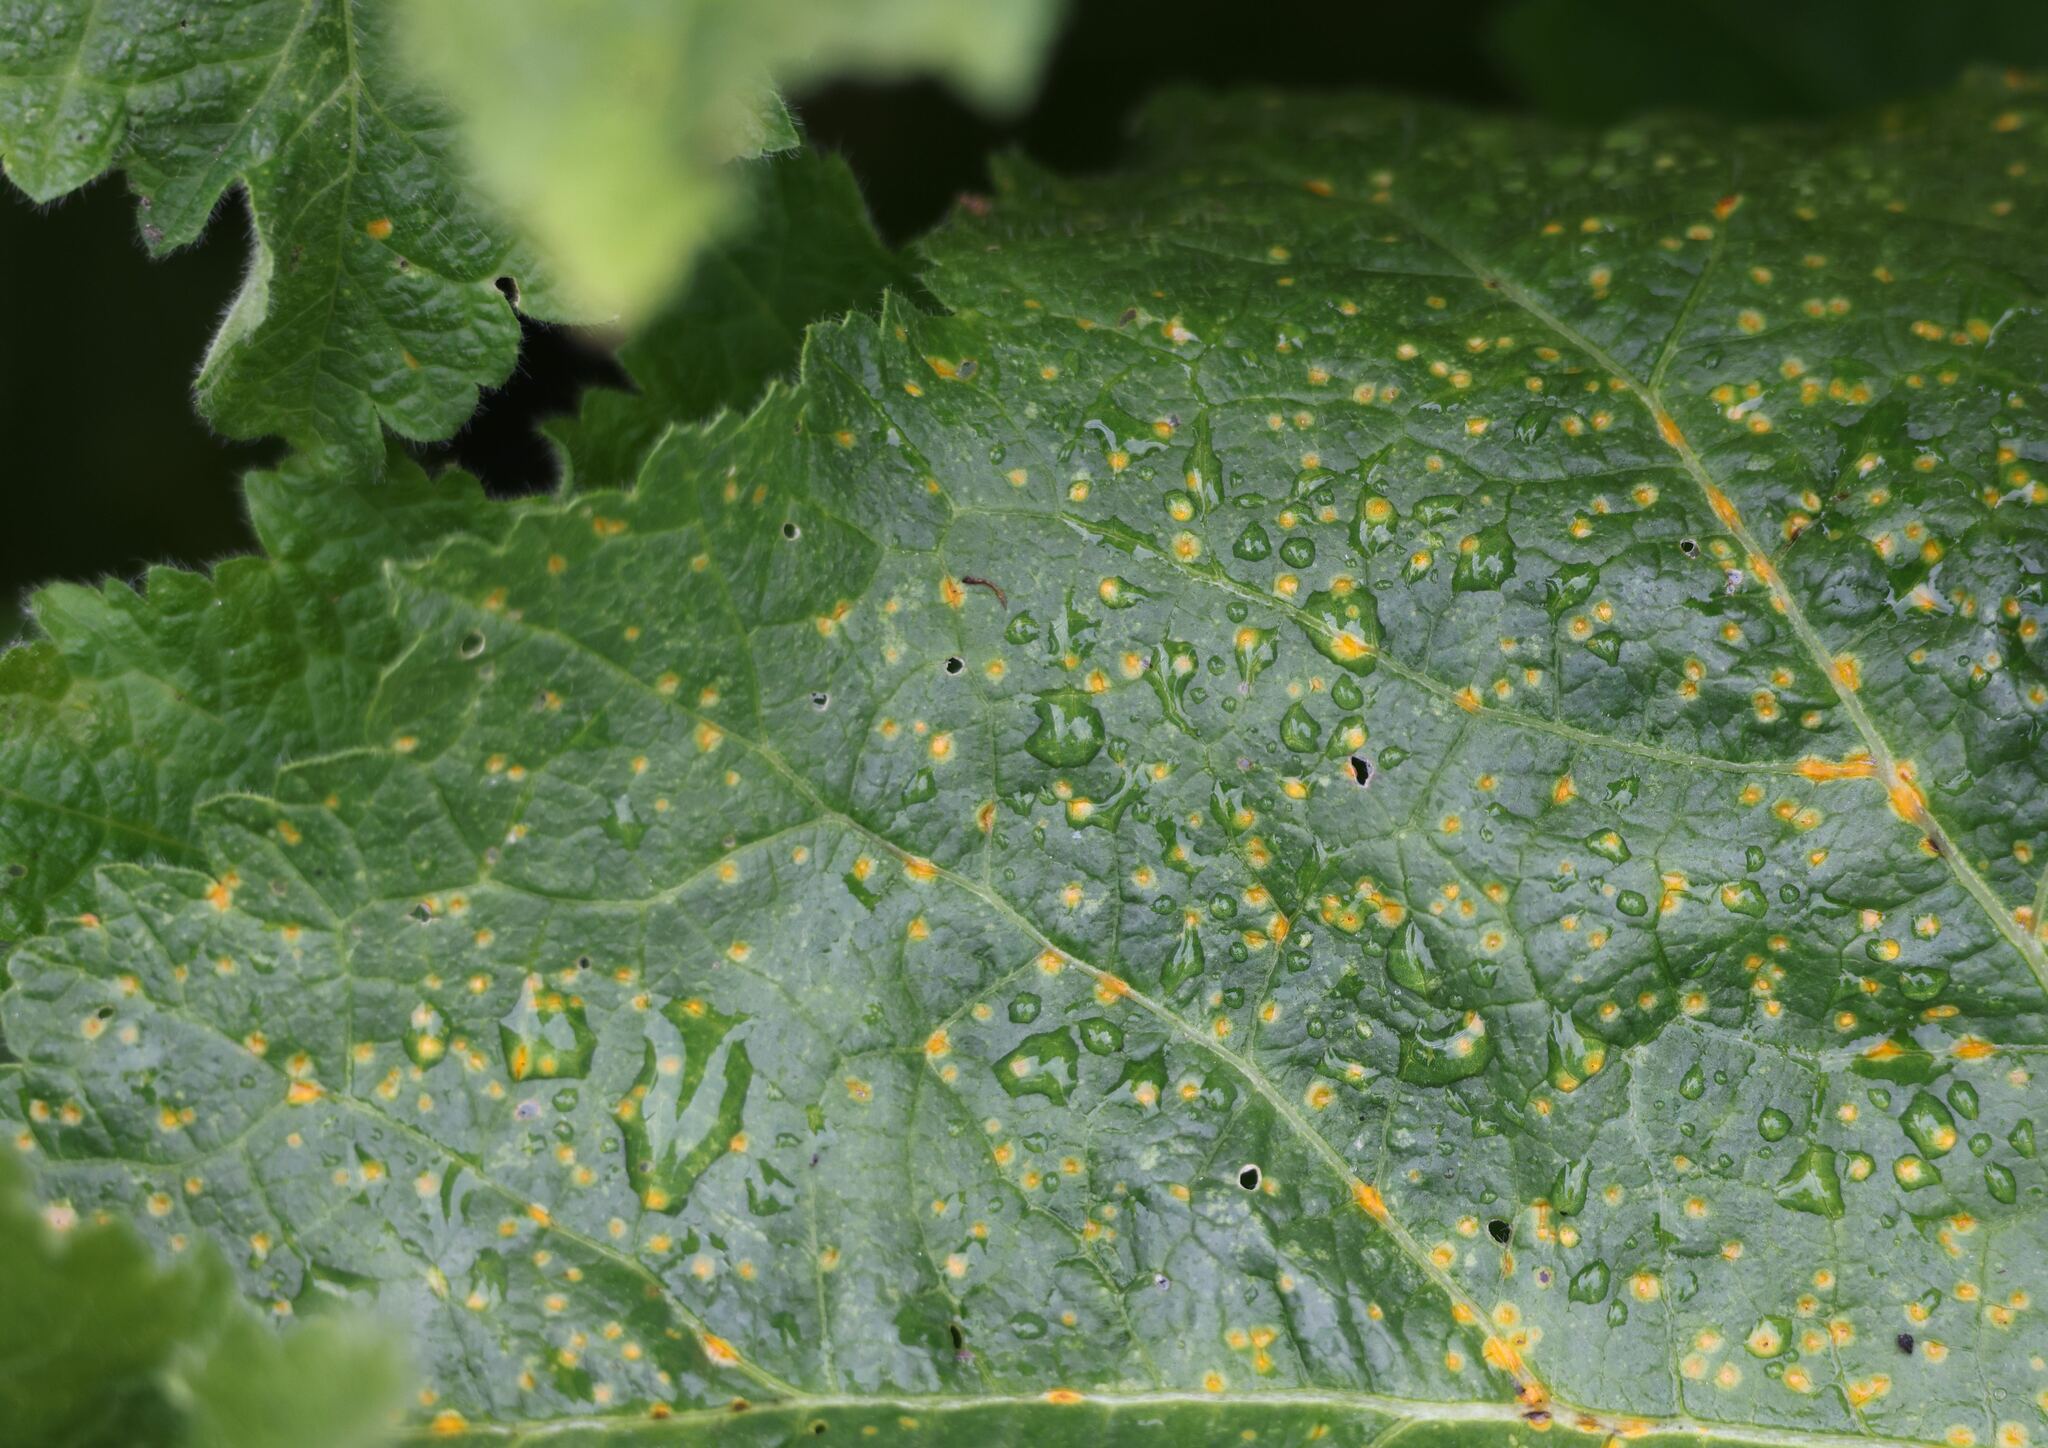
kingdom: Fungi
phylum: Basidiomycota
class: Pucciniomycetes
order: Pucciniales
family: Pucciniaceae
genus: Puccinia
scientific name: Puccinia malvacearum
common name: Hollyhock rust
